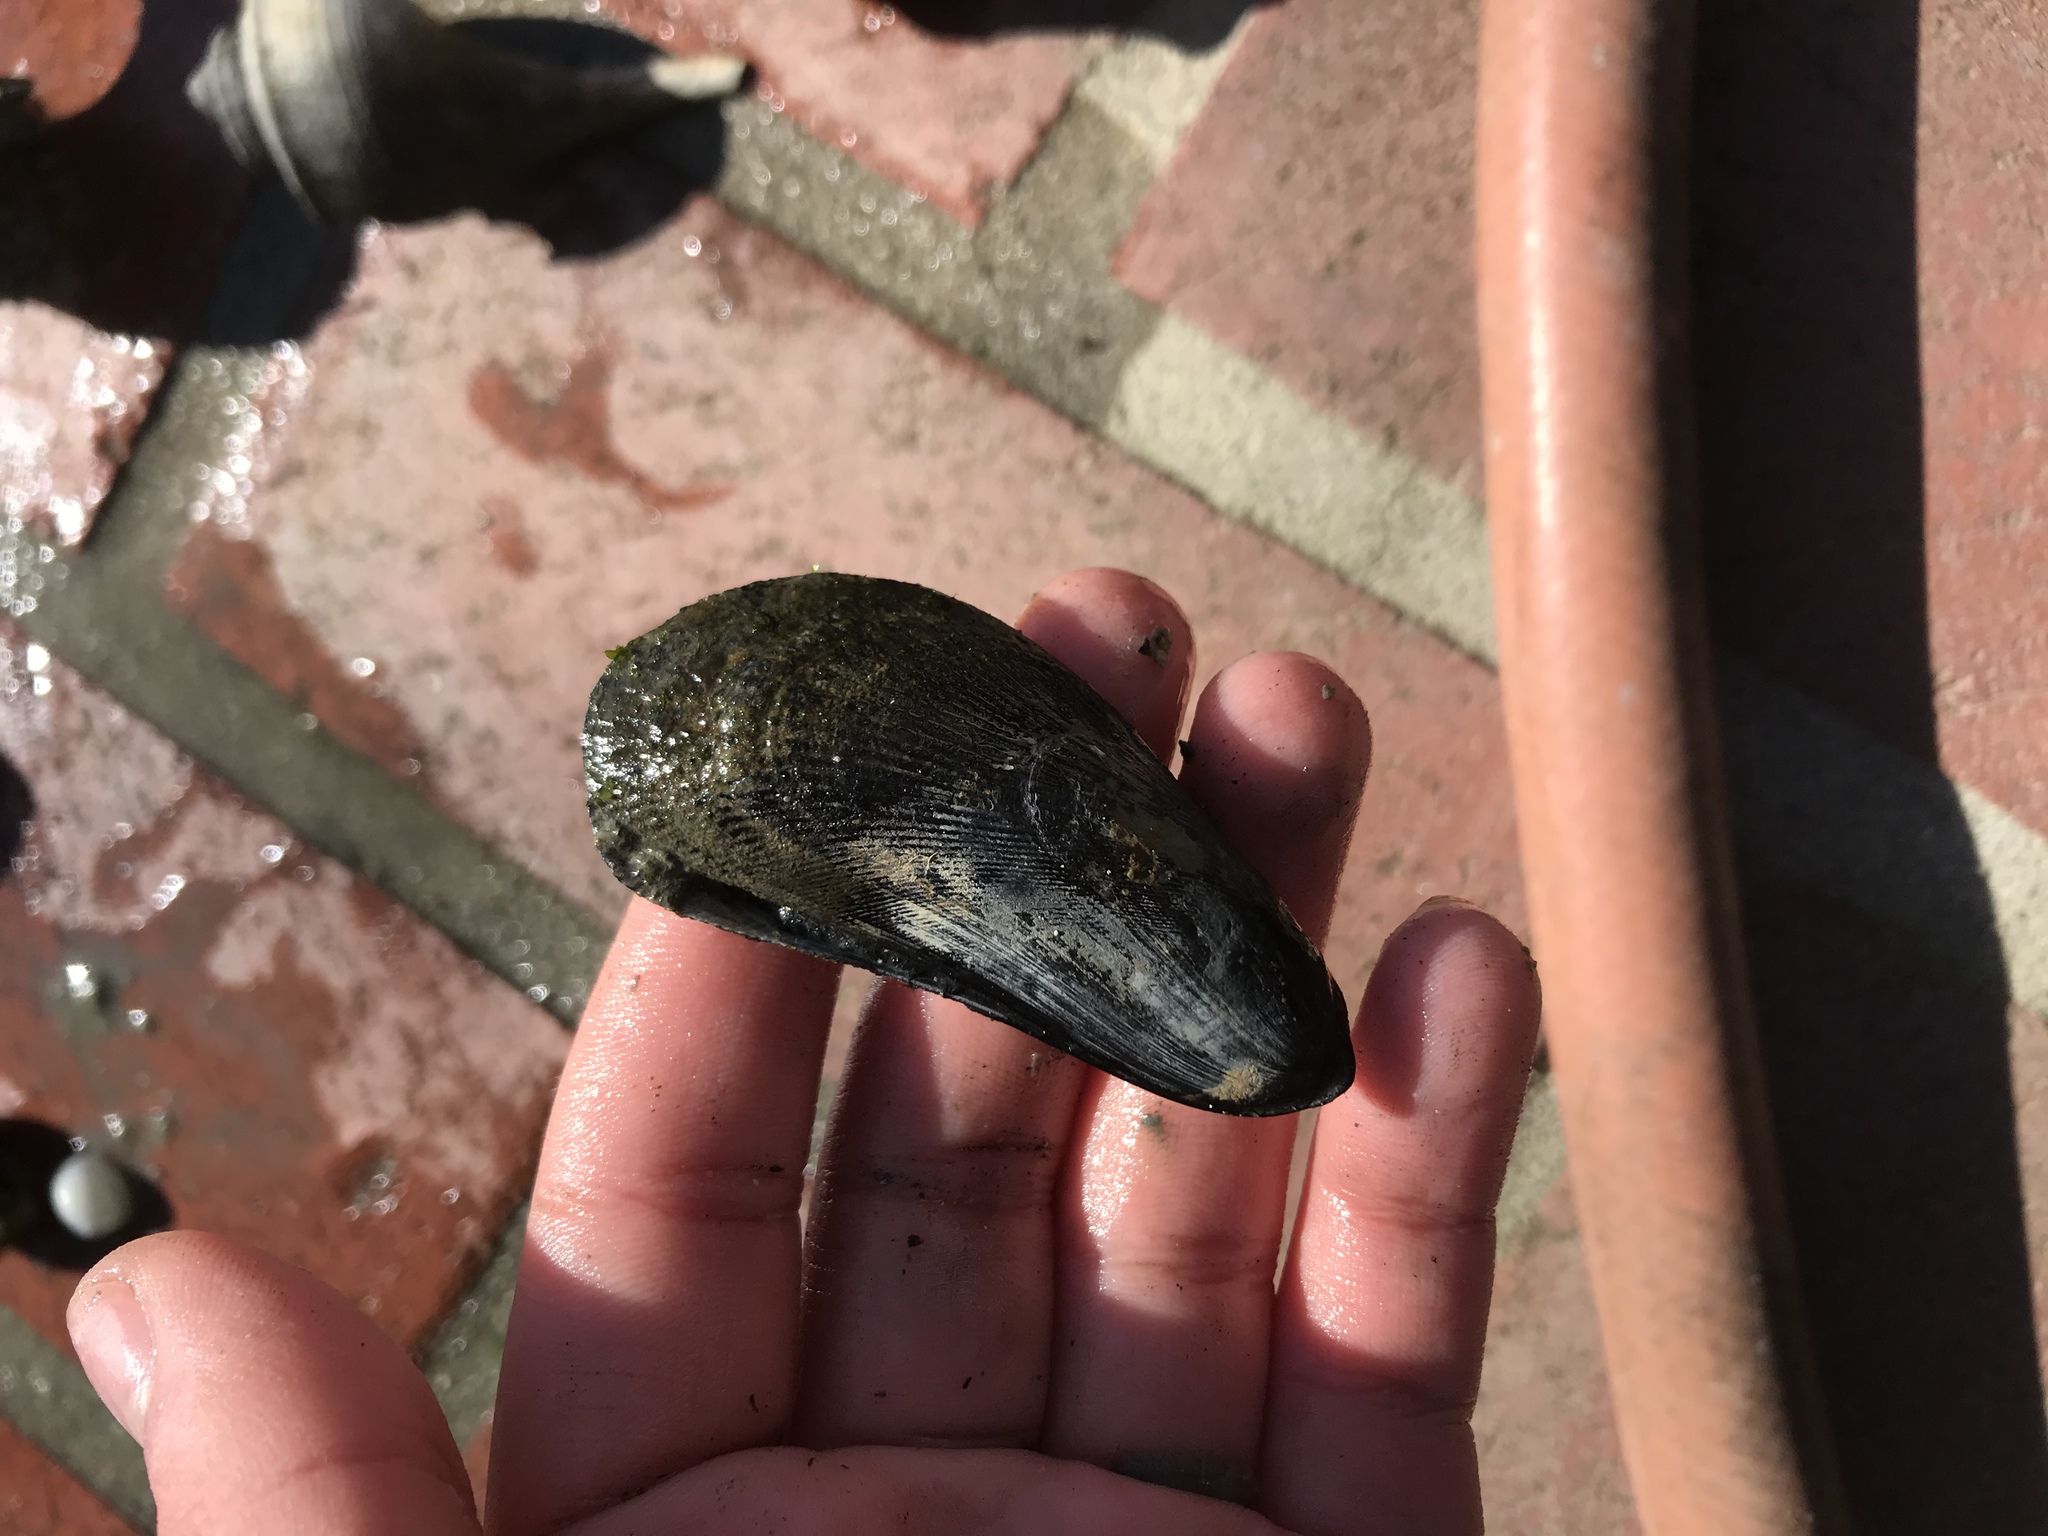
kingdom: Animalia
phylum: Mollusca
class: Bivalvia
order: Mytilida
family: Mytilidae
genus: Geukensia
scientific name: Geukensia demissa
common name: Ribbed mussel
